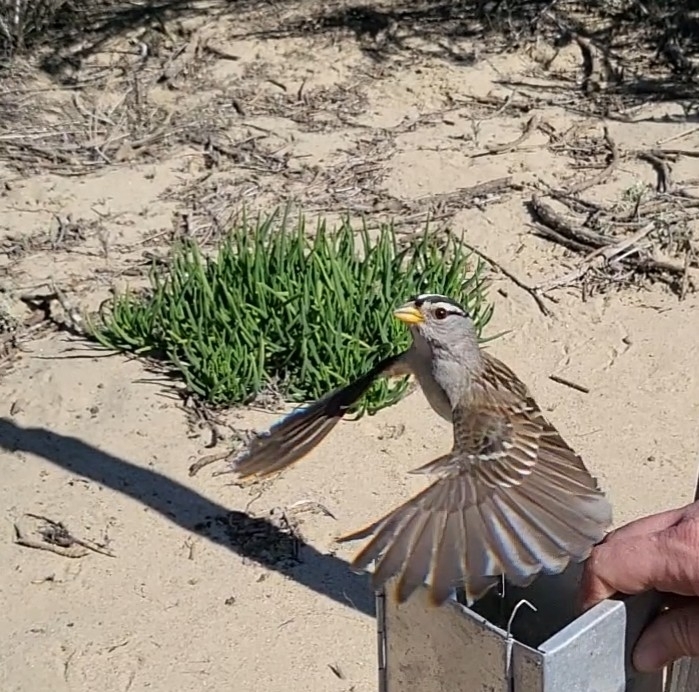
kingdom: Animalia
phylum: Chordata
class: Aves
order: Passeriformes
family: Passerellidae
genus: Zonotrichia
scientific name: Zonotrichia leucophrys
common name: White-crowned sparrow
